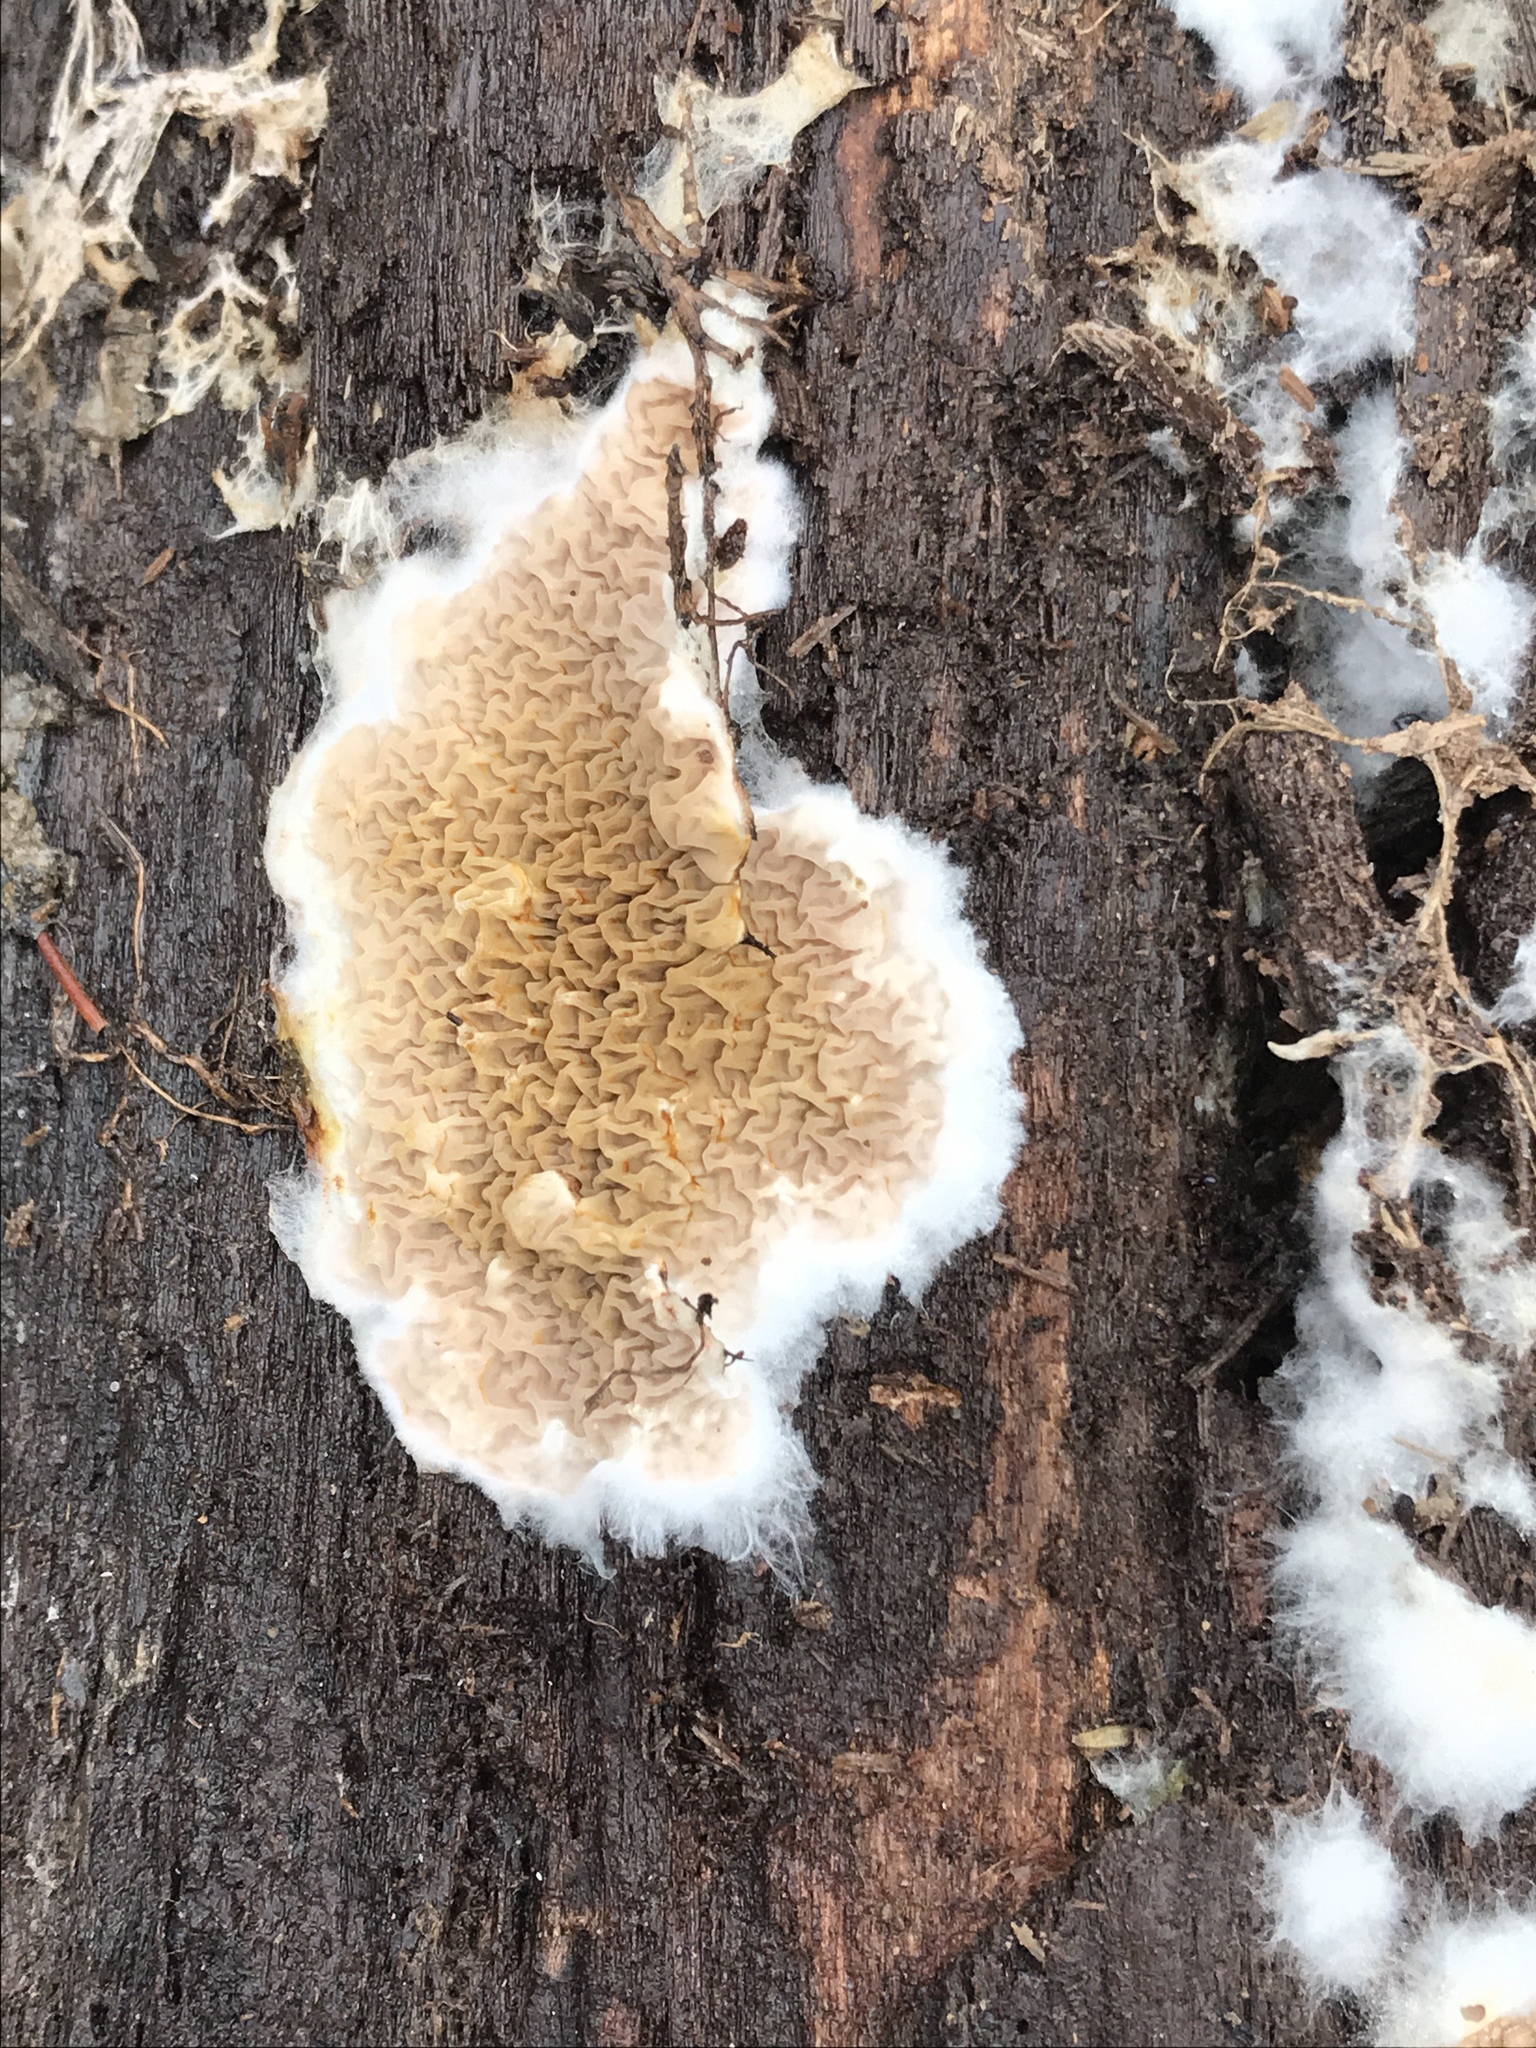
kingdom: Fungi
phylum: Basidiomycota
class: Agaricomycetes
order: Boletales
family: Serpulaceae
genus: Serpula
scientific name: Serpula himantioides
